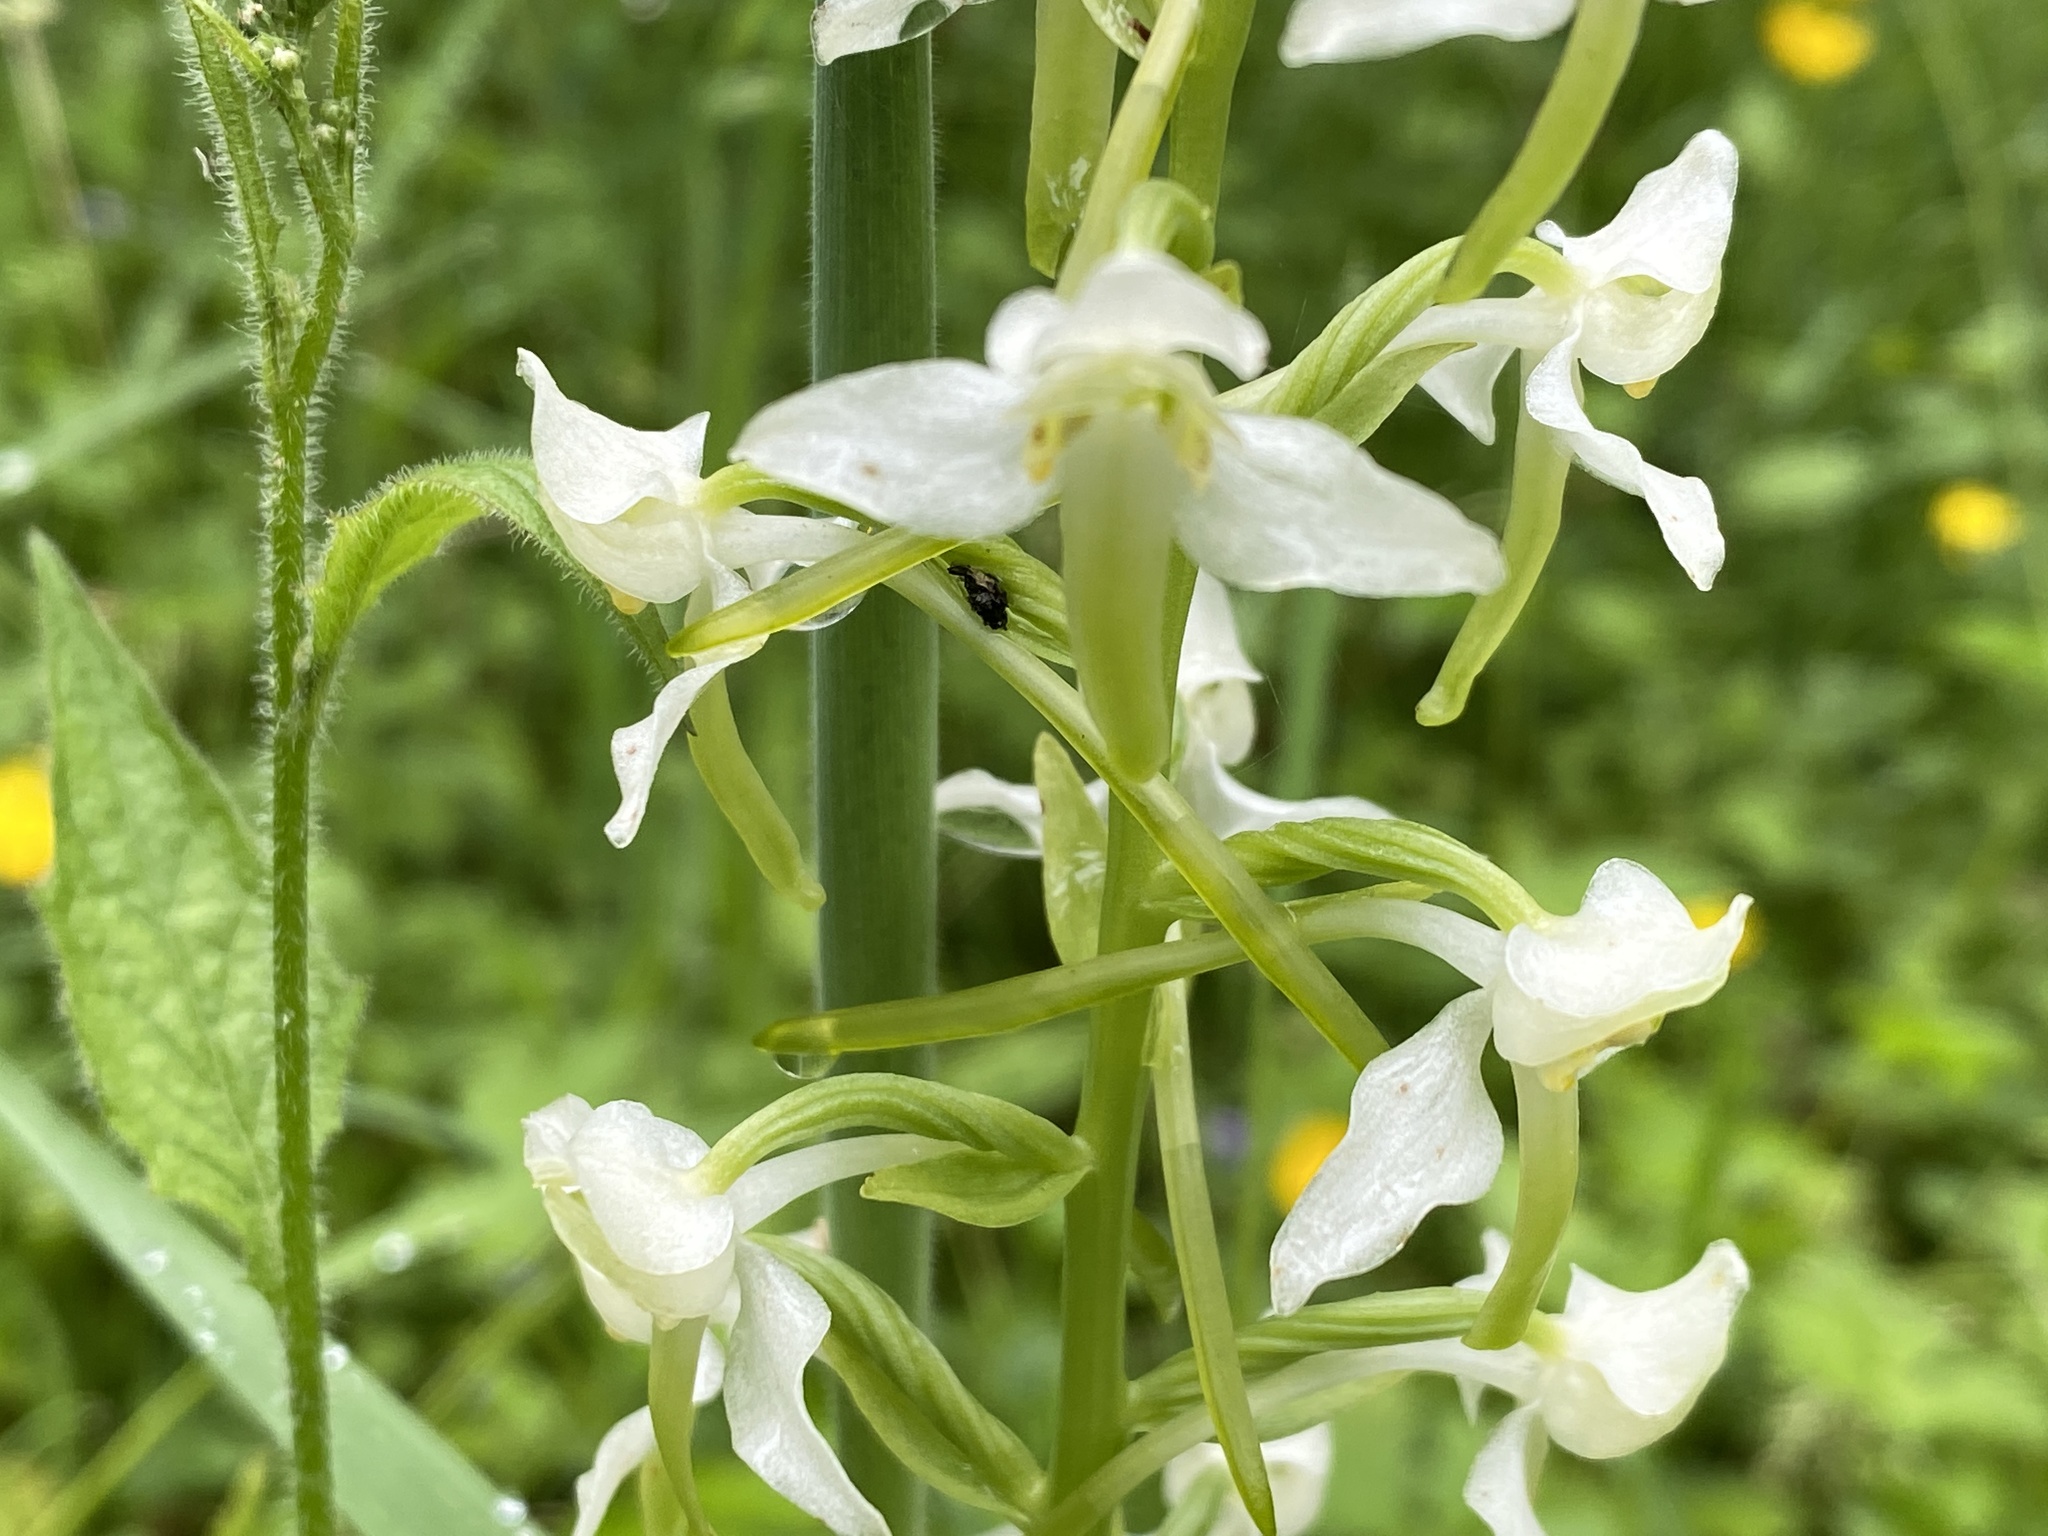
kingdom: Plantae
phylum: Tracheophyta
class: Liliopsida
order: Asparagales
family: Orchidaceae
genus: Platanthera
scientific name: Platanthera chlorantha
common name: Greater butterfly-orchid
